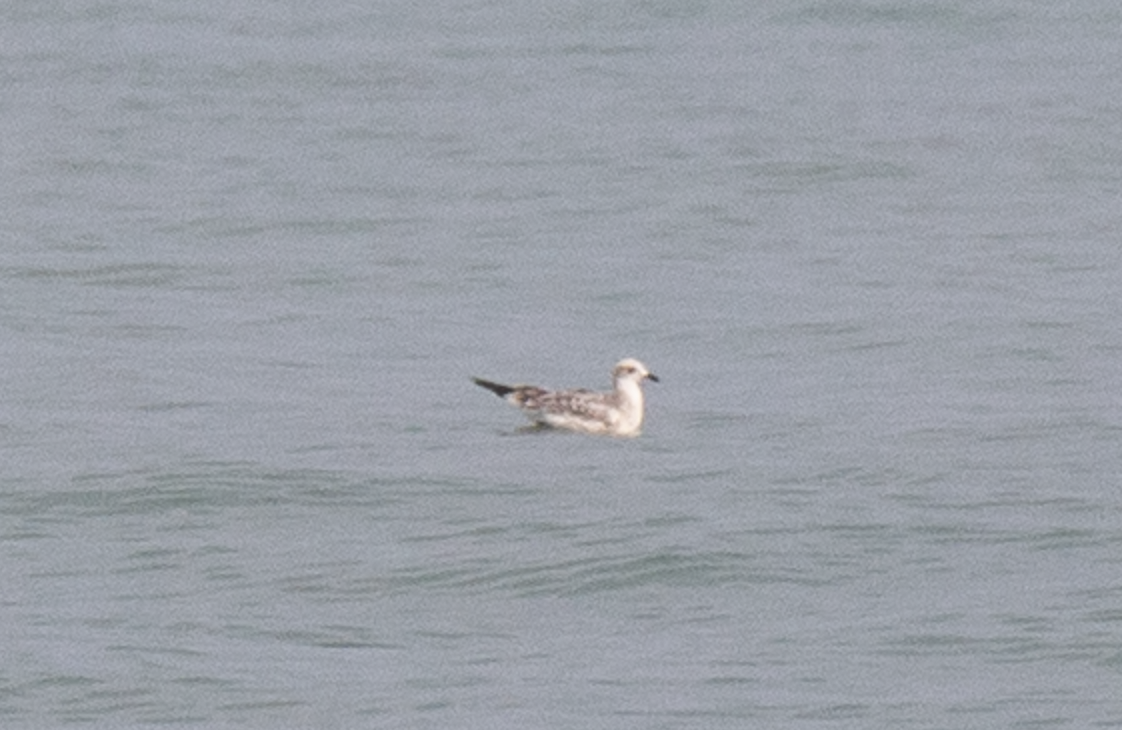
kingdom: Animalia
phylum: Chordata
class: Aves
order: Charadriiformes
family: Laridae
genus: Ichthyaetus
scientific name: Ichthyaetus melanocephalus
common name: Mediterranean gull
